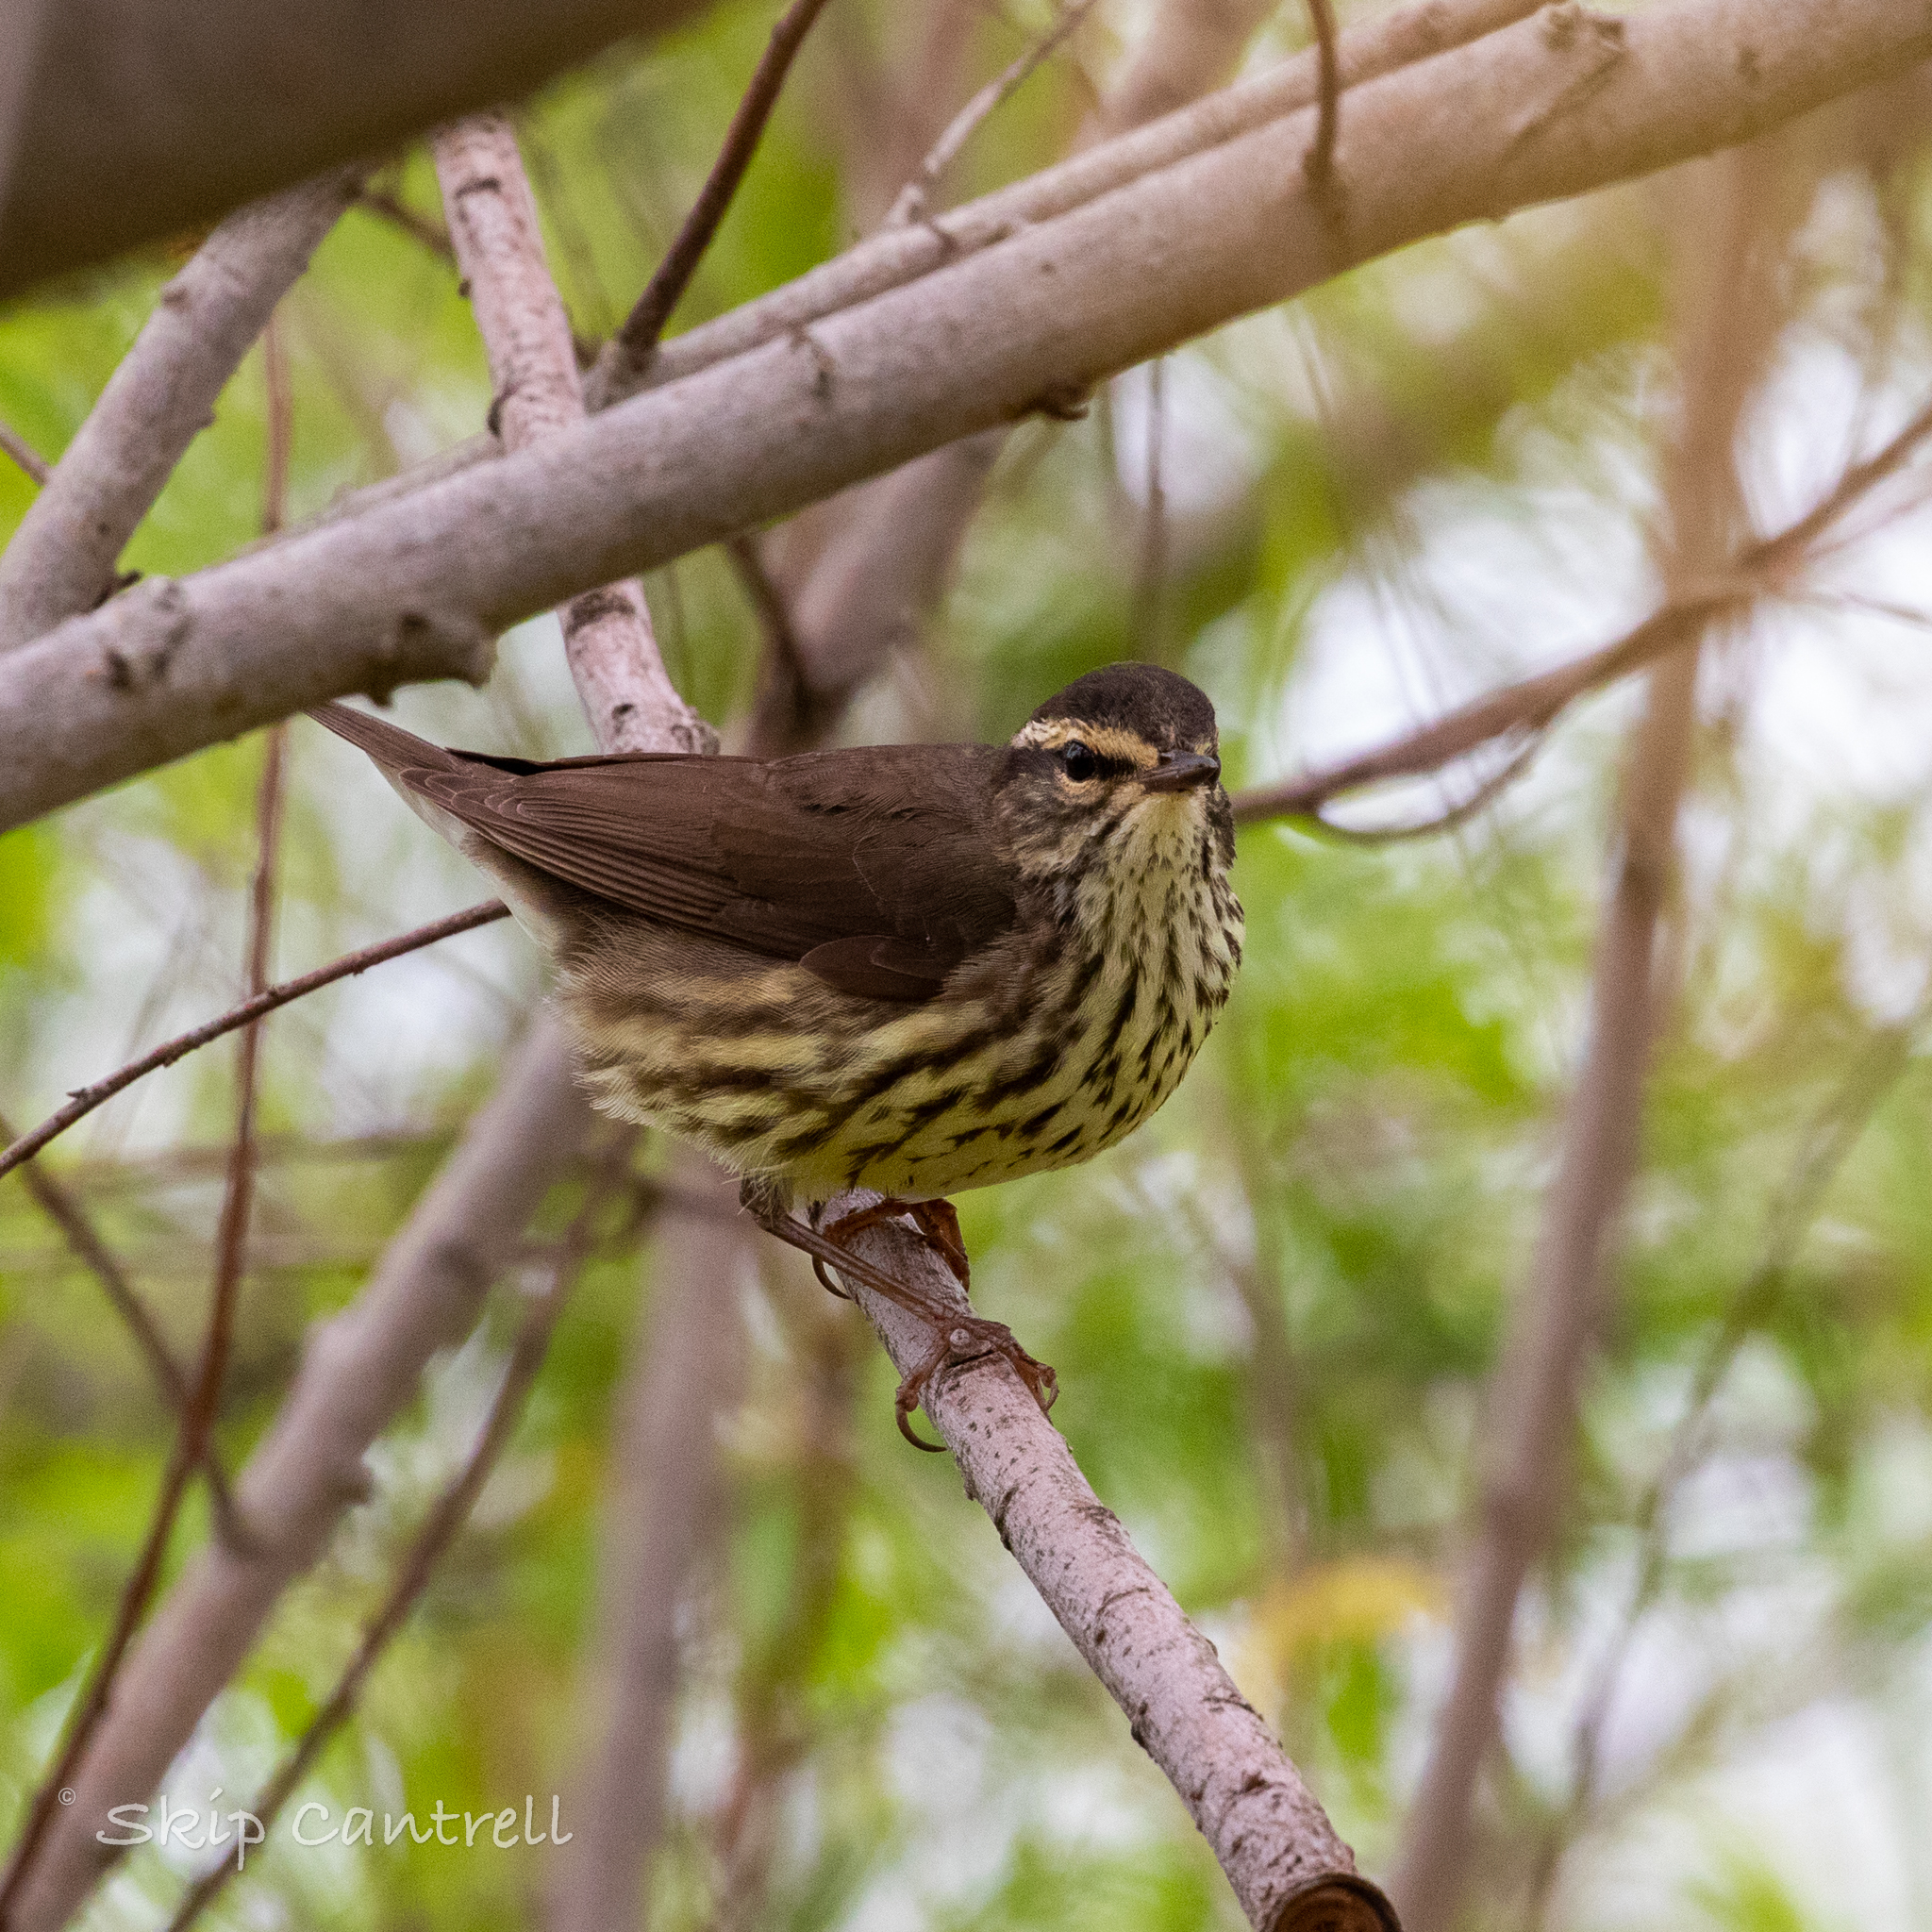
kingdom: Animalia
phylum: Chordata
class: Aves
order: Passeriformes
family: Parulidae
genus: Parkesia
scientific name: Parkesia noveboracensis
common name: Northern waterthrush
